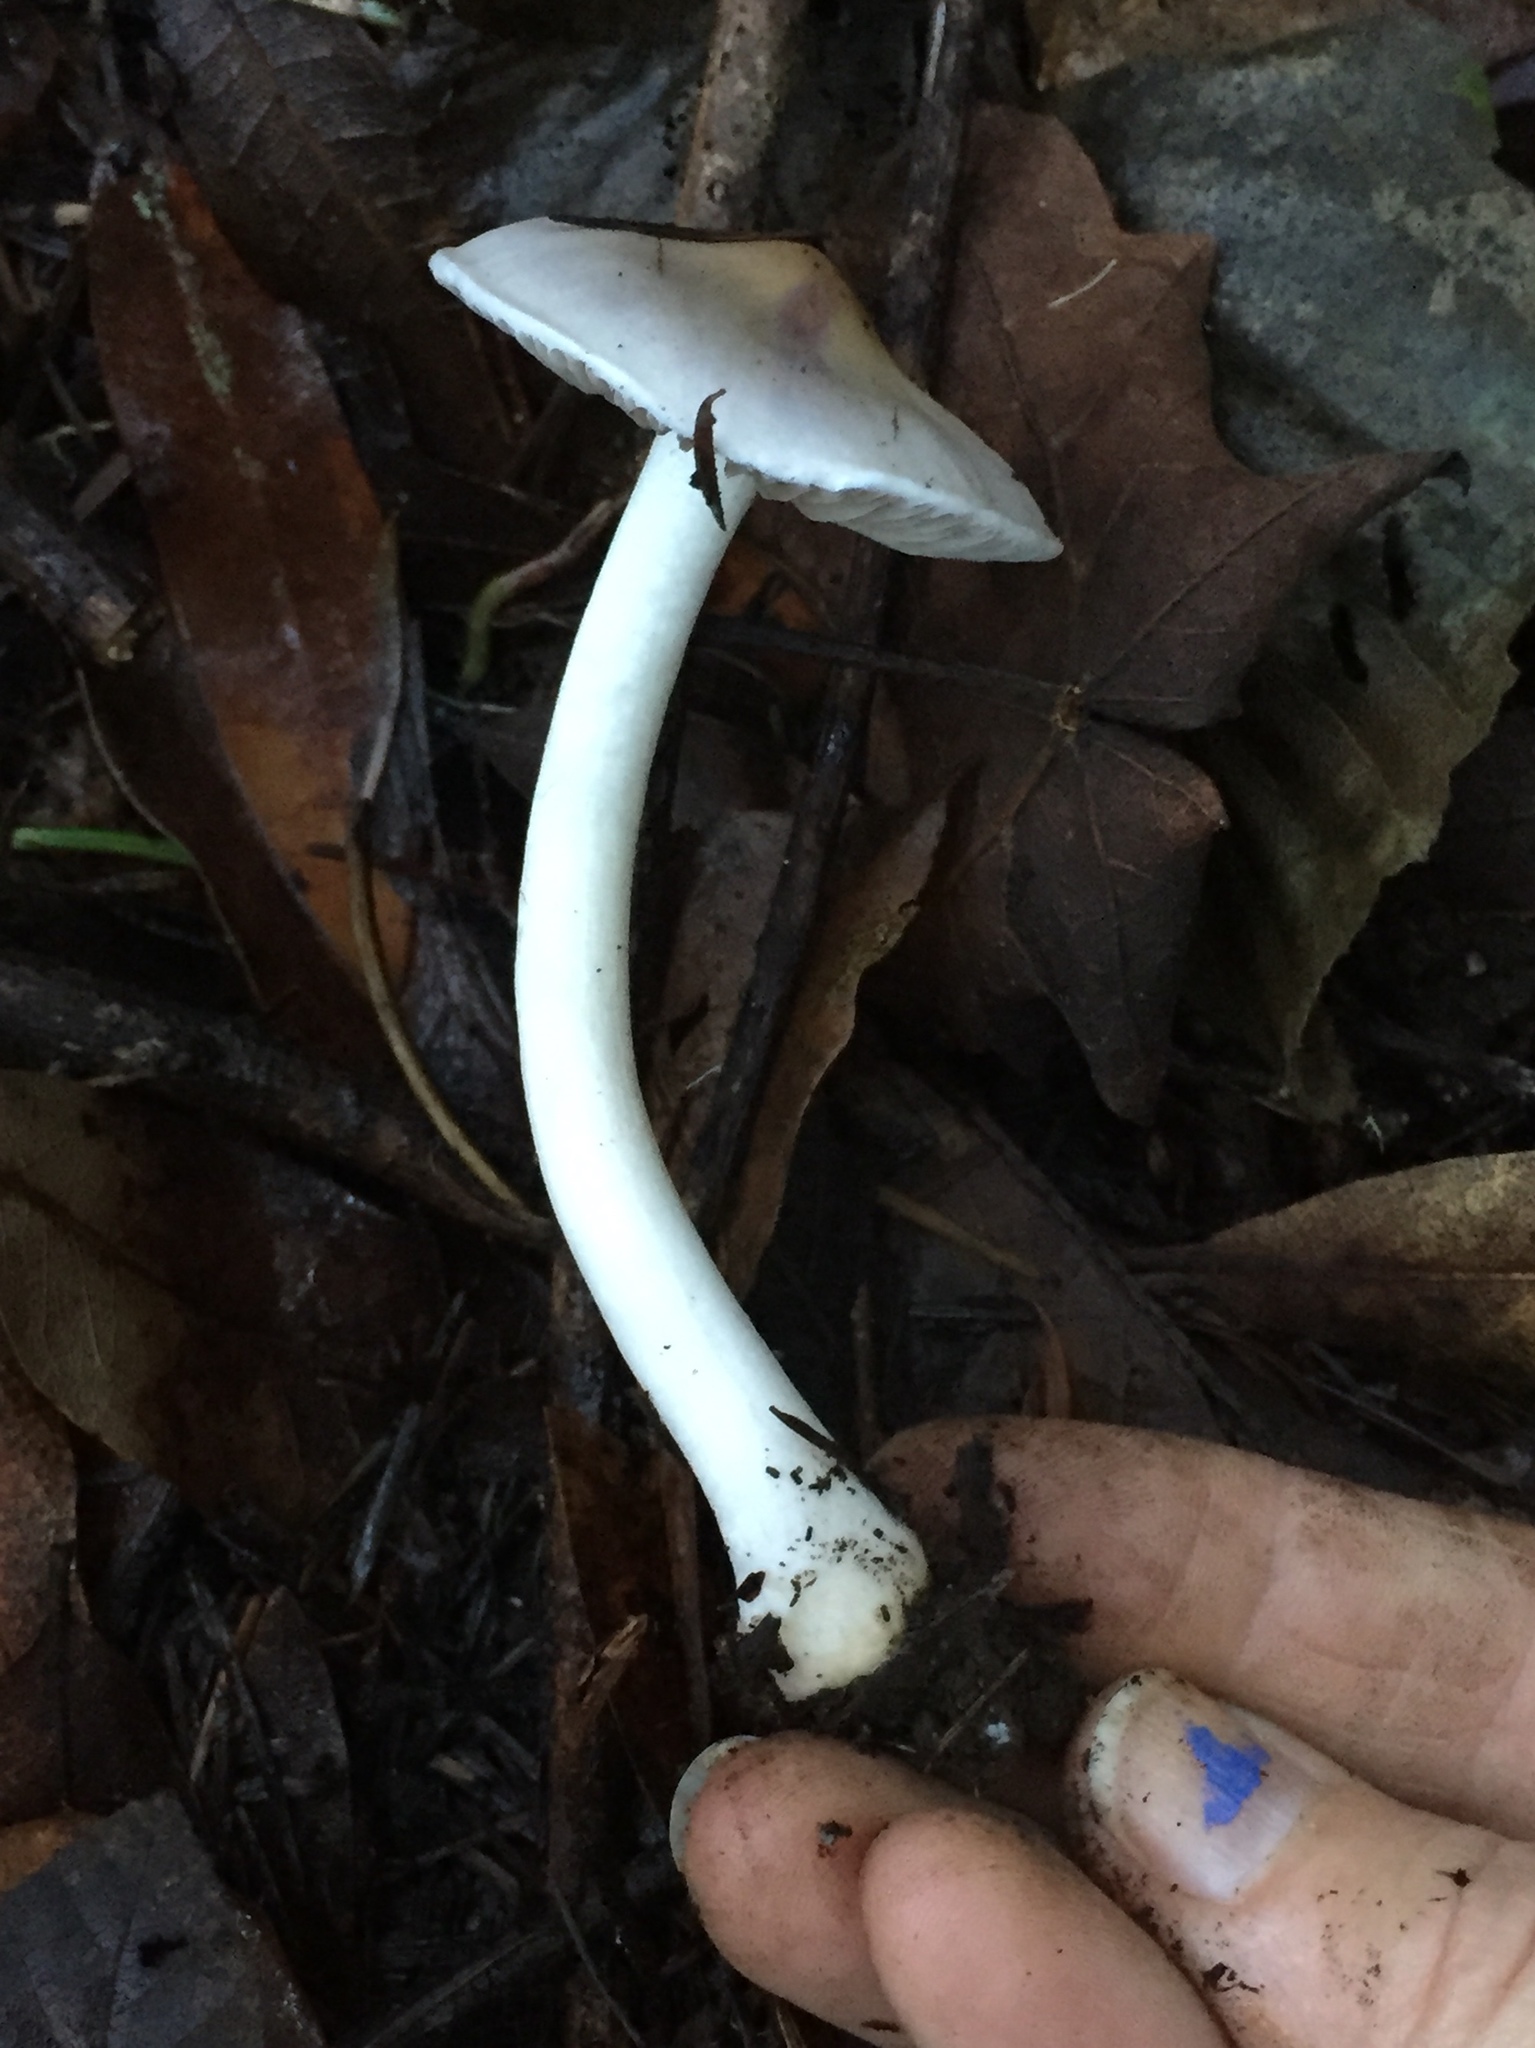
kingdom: Fungi
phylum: Basidiomycota
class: Agaricomycetes
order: Agaricales
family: Inocybaceae
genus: Inocybe
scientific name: Inocybe ionocephala
